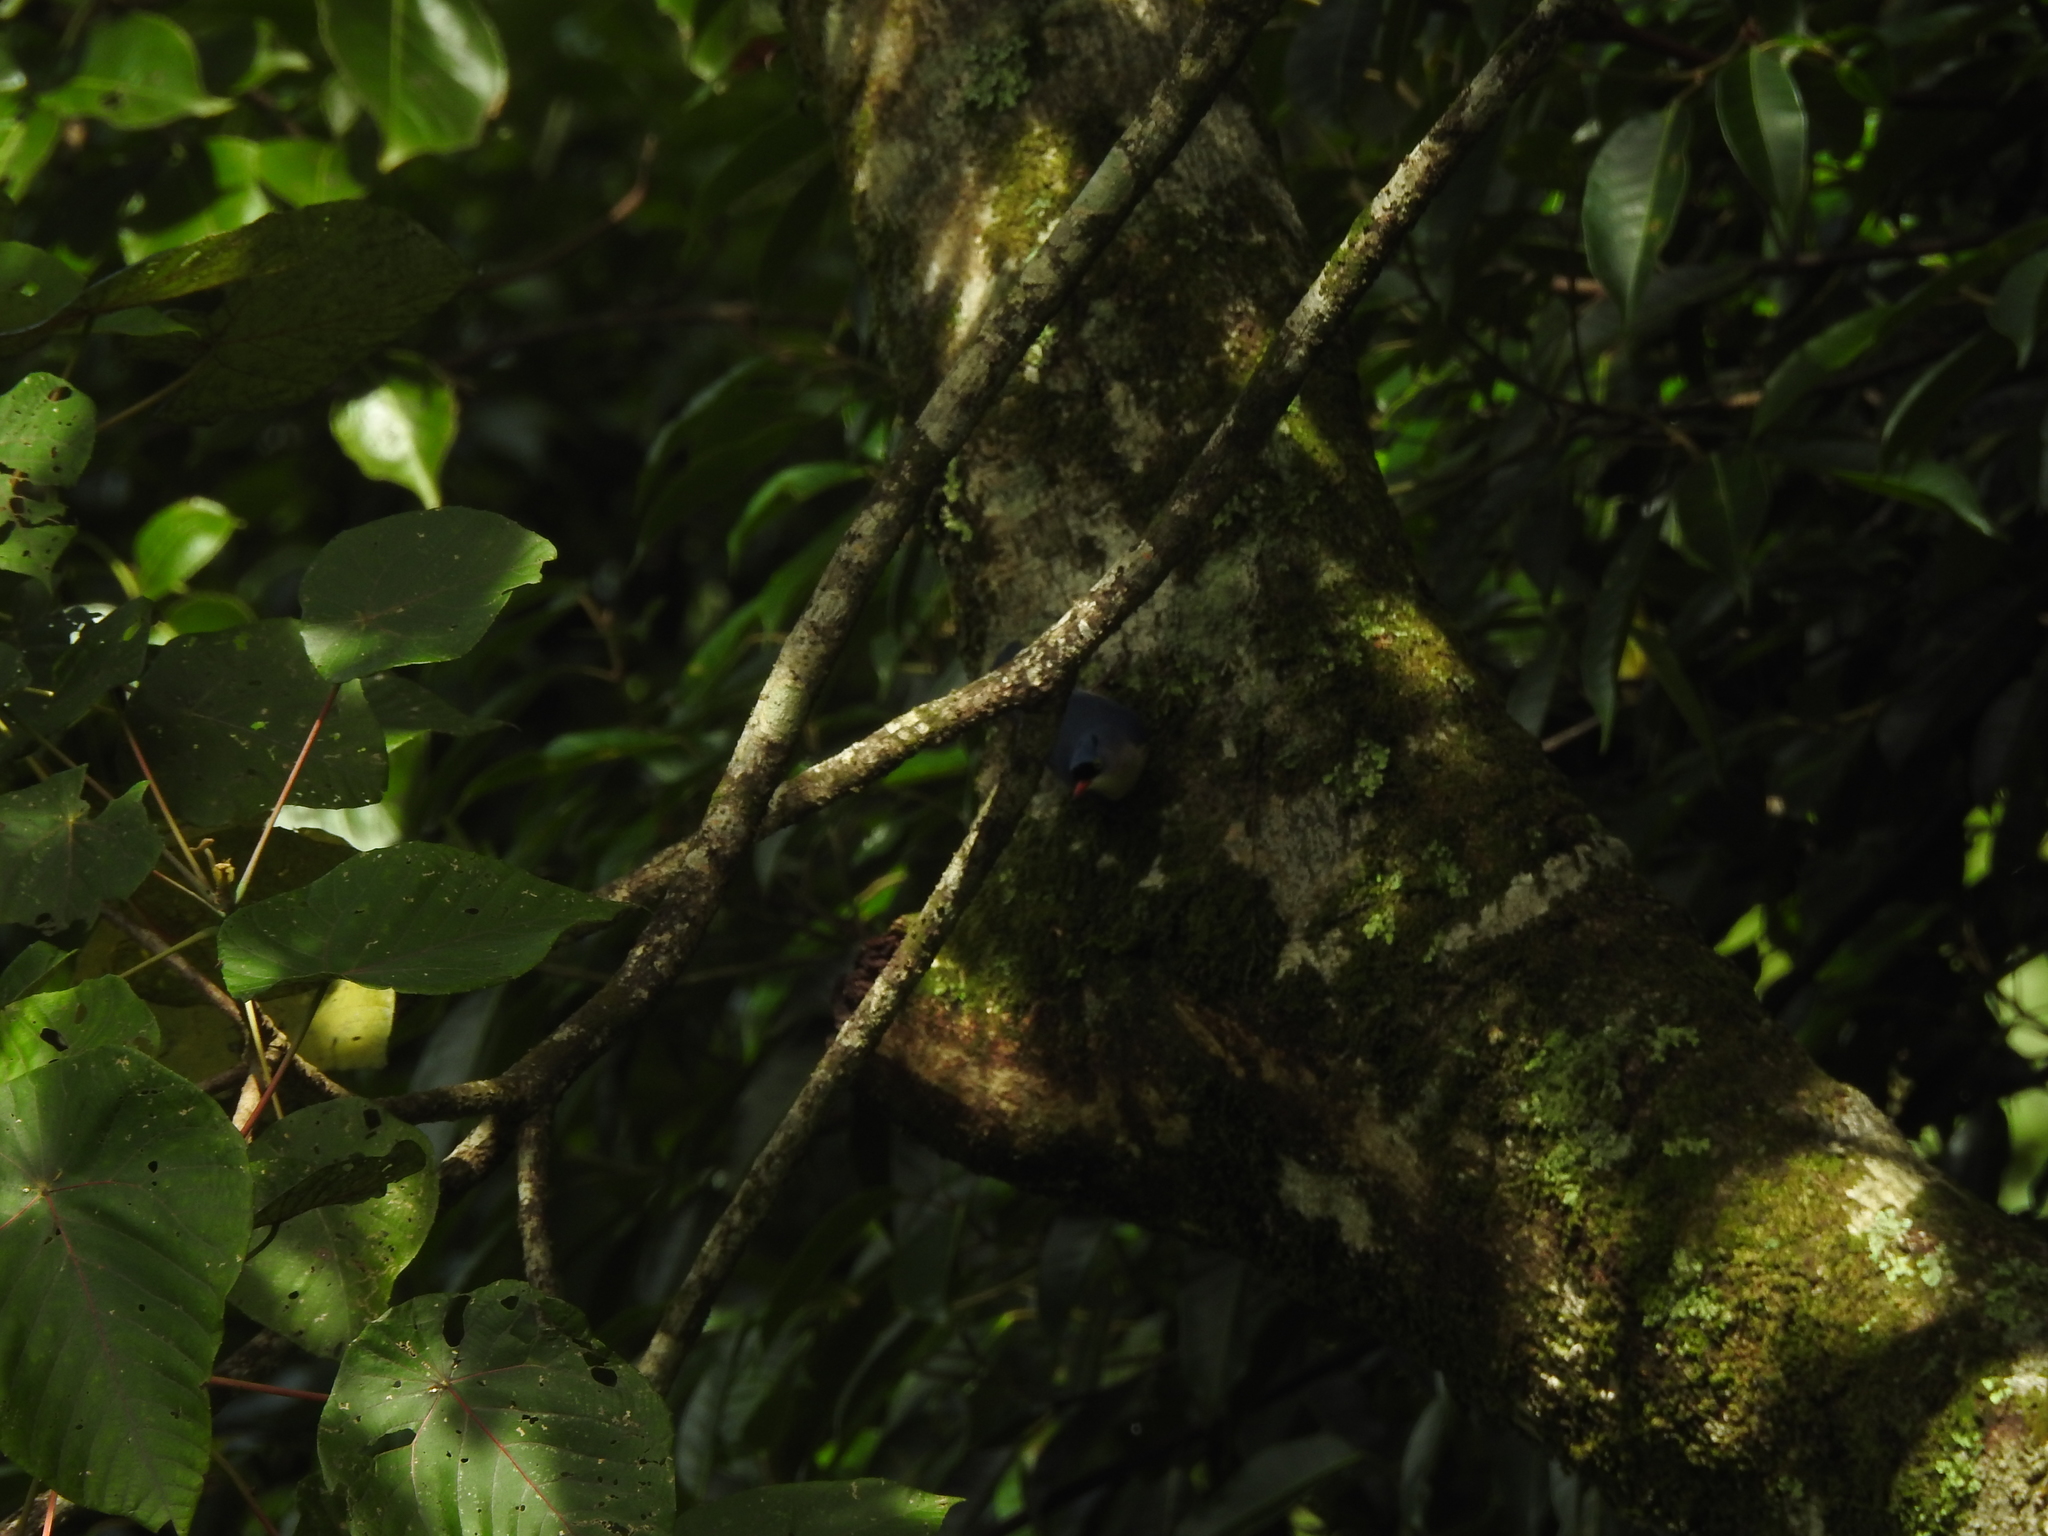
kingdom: Animalia
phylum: Chordata
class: Aves
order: Passeriformes
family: Sittidae
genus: Sitta
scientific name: Sitta frontalis
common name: Velvet-fronted nuthatch
